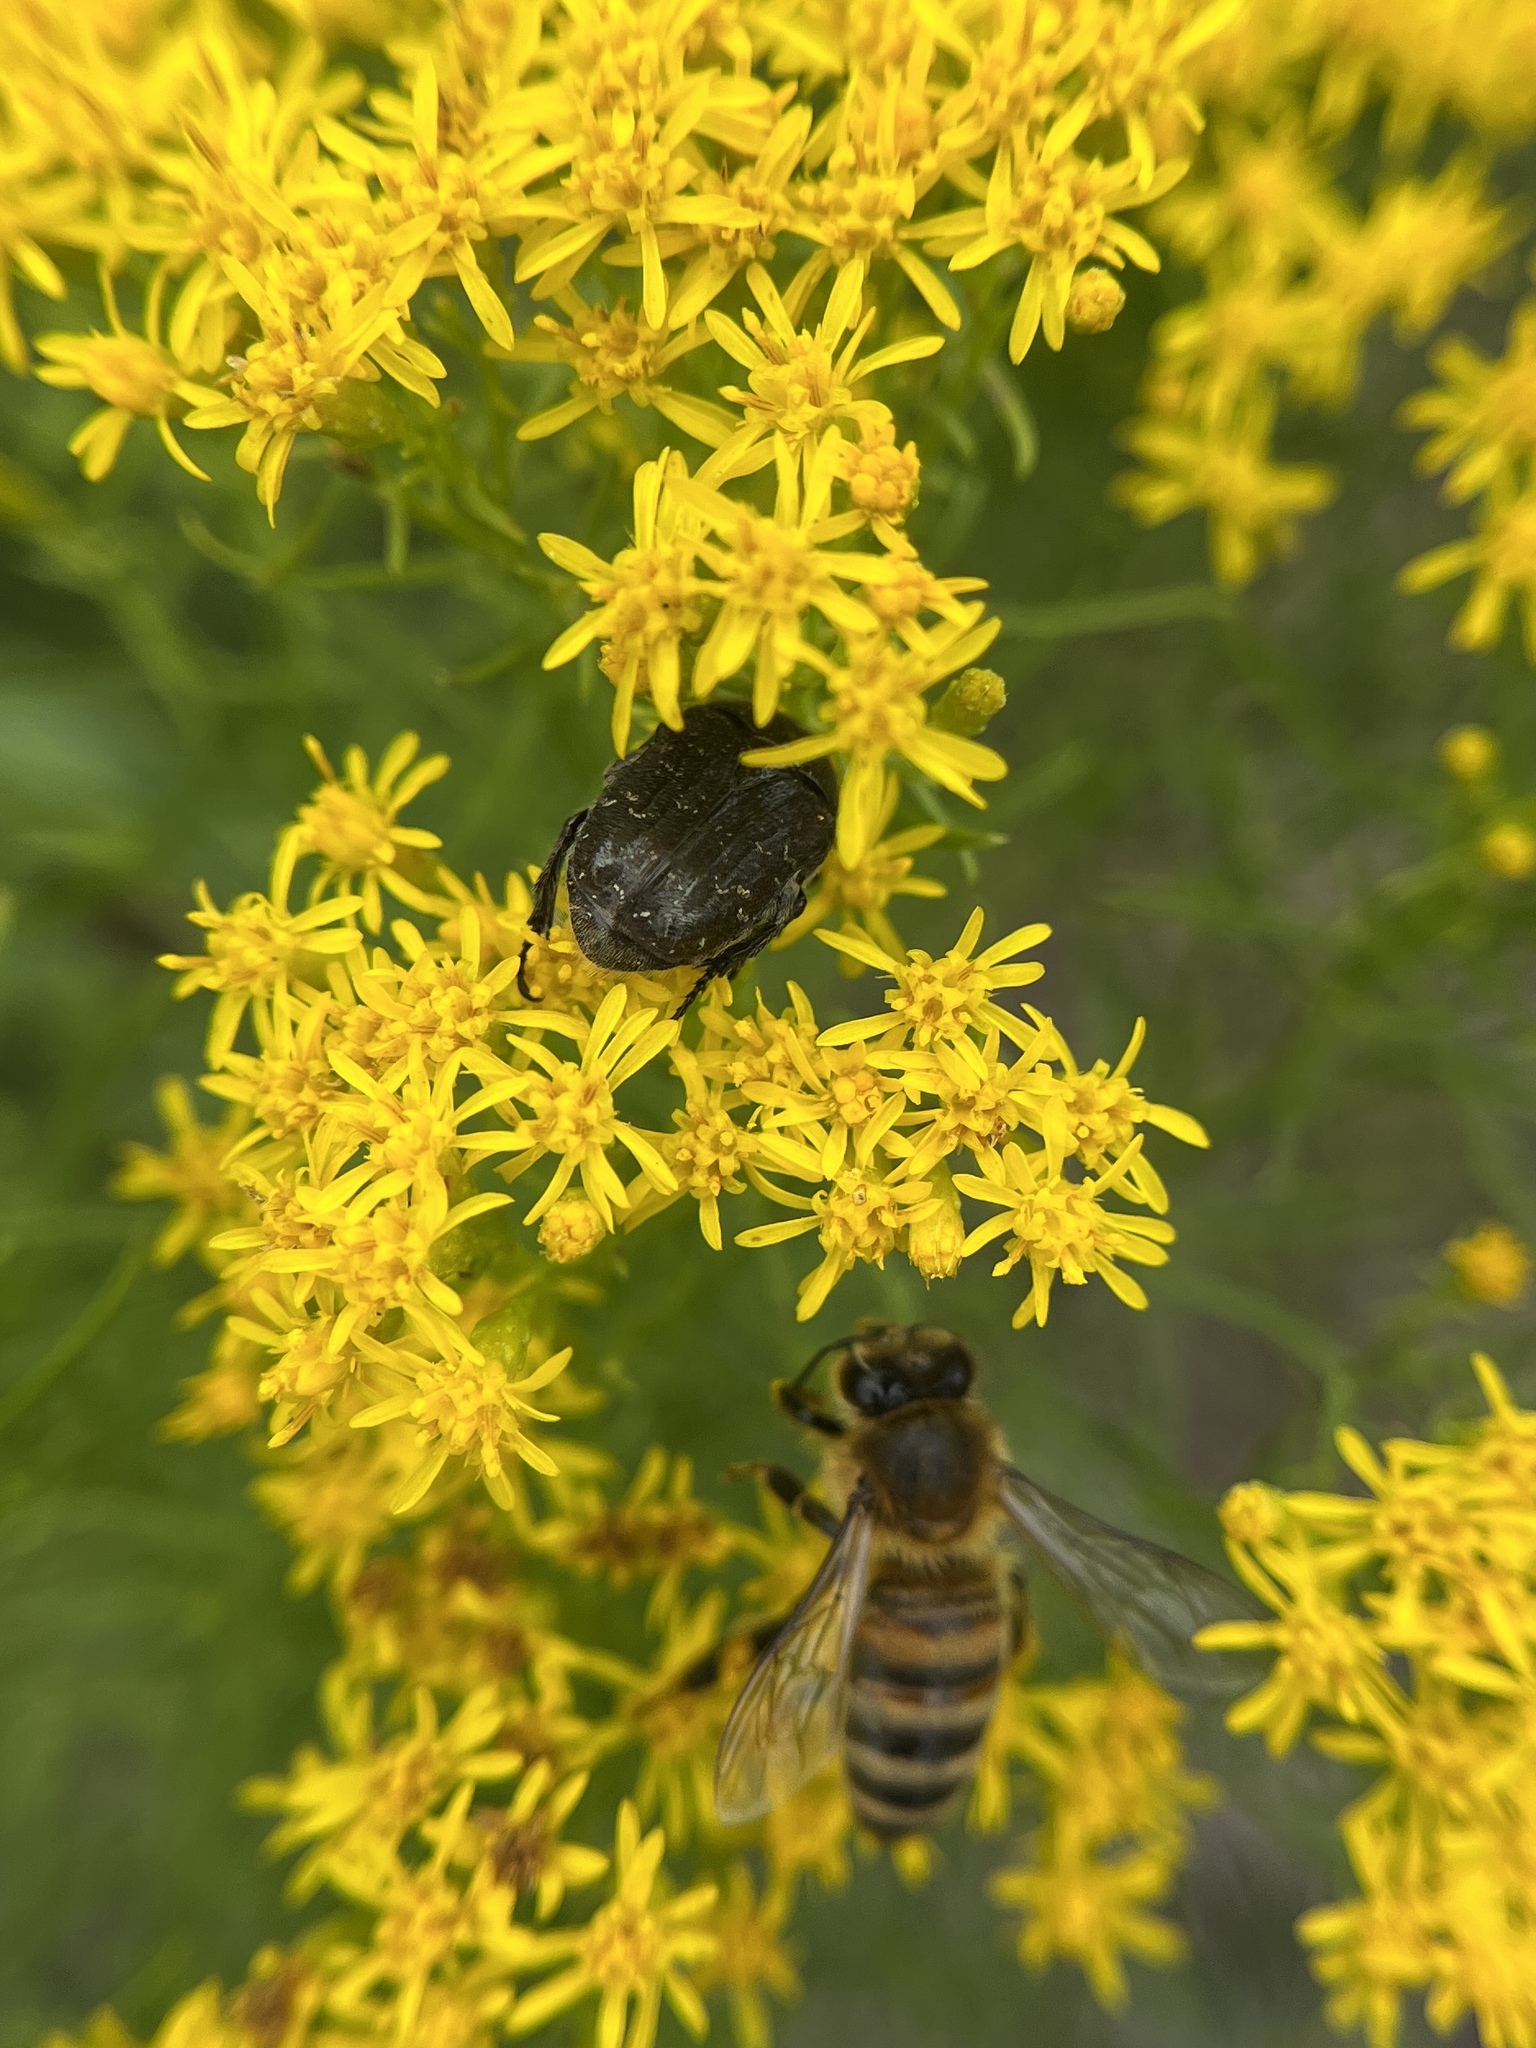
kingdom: Animalia
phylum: Arthropoda
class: Insecta
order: Coleoptera
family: Scarabaeidae
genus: Euphoria
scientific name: Euphoria sepulcralis
